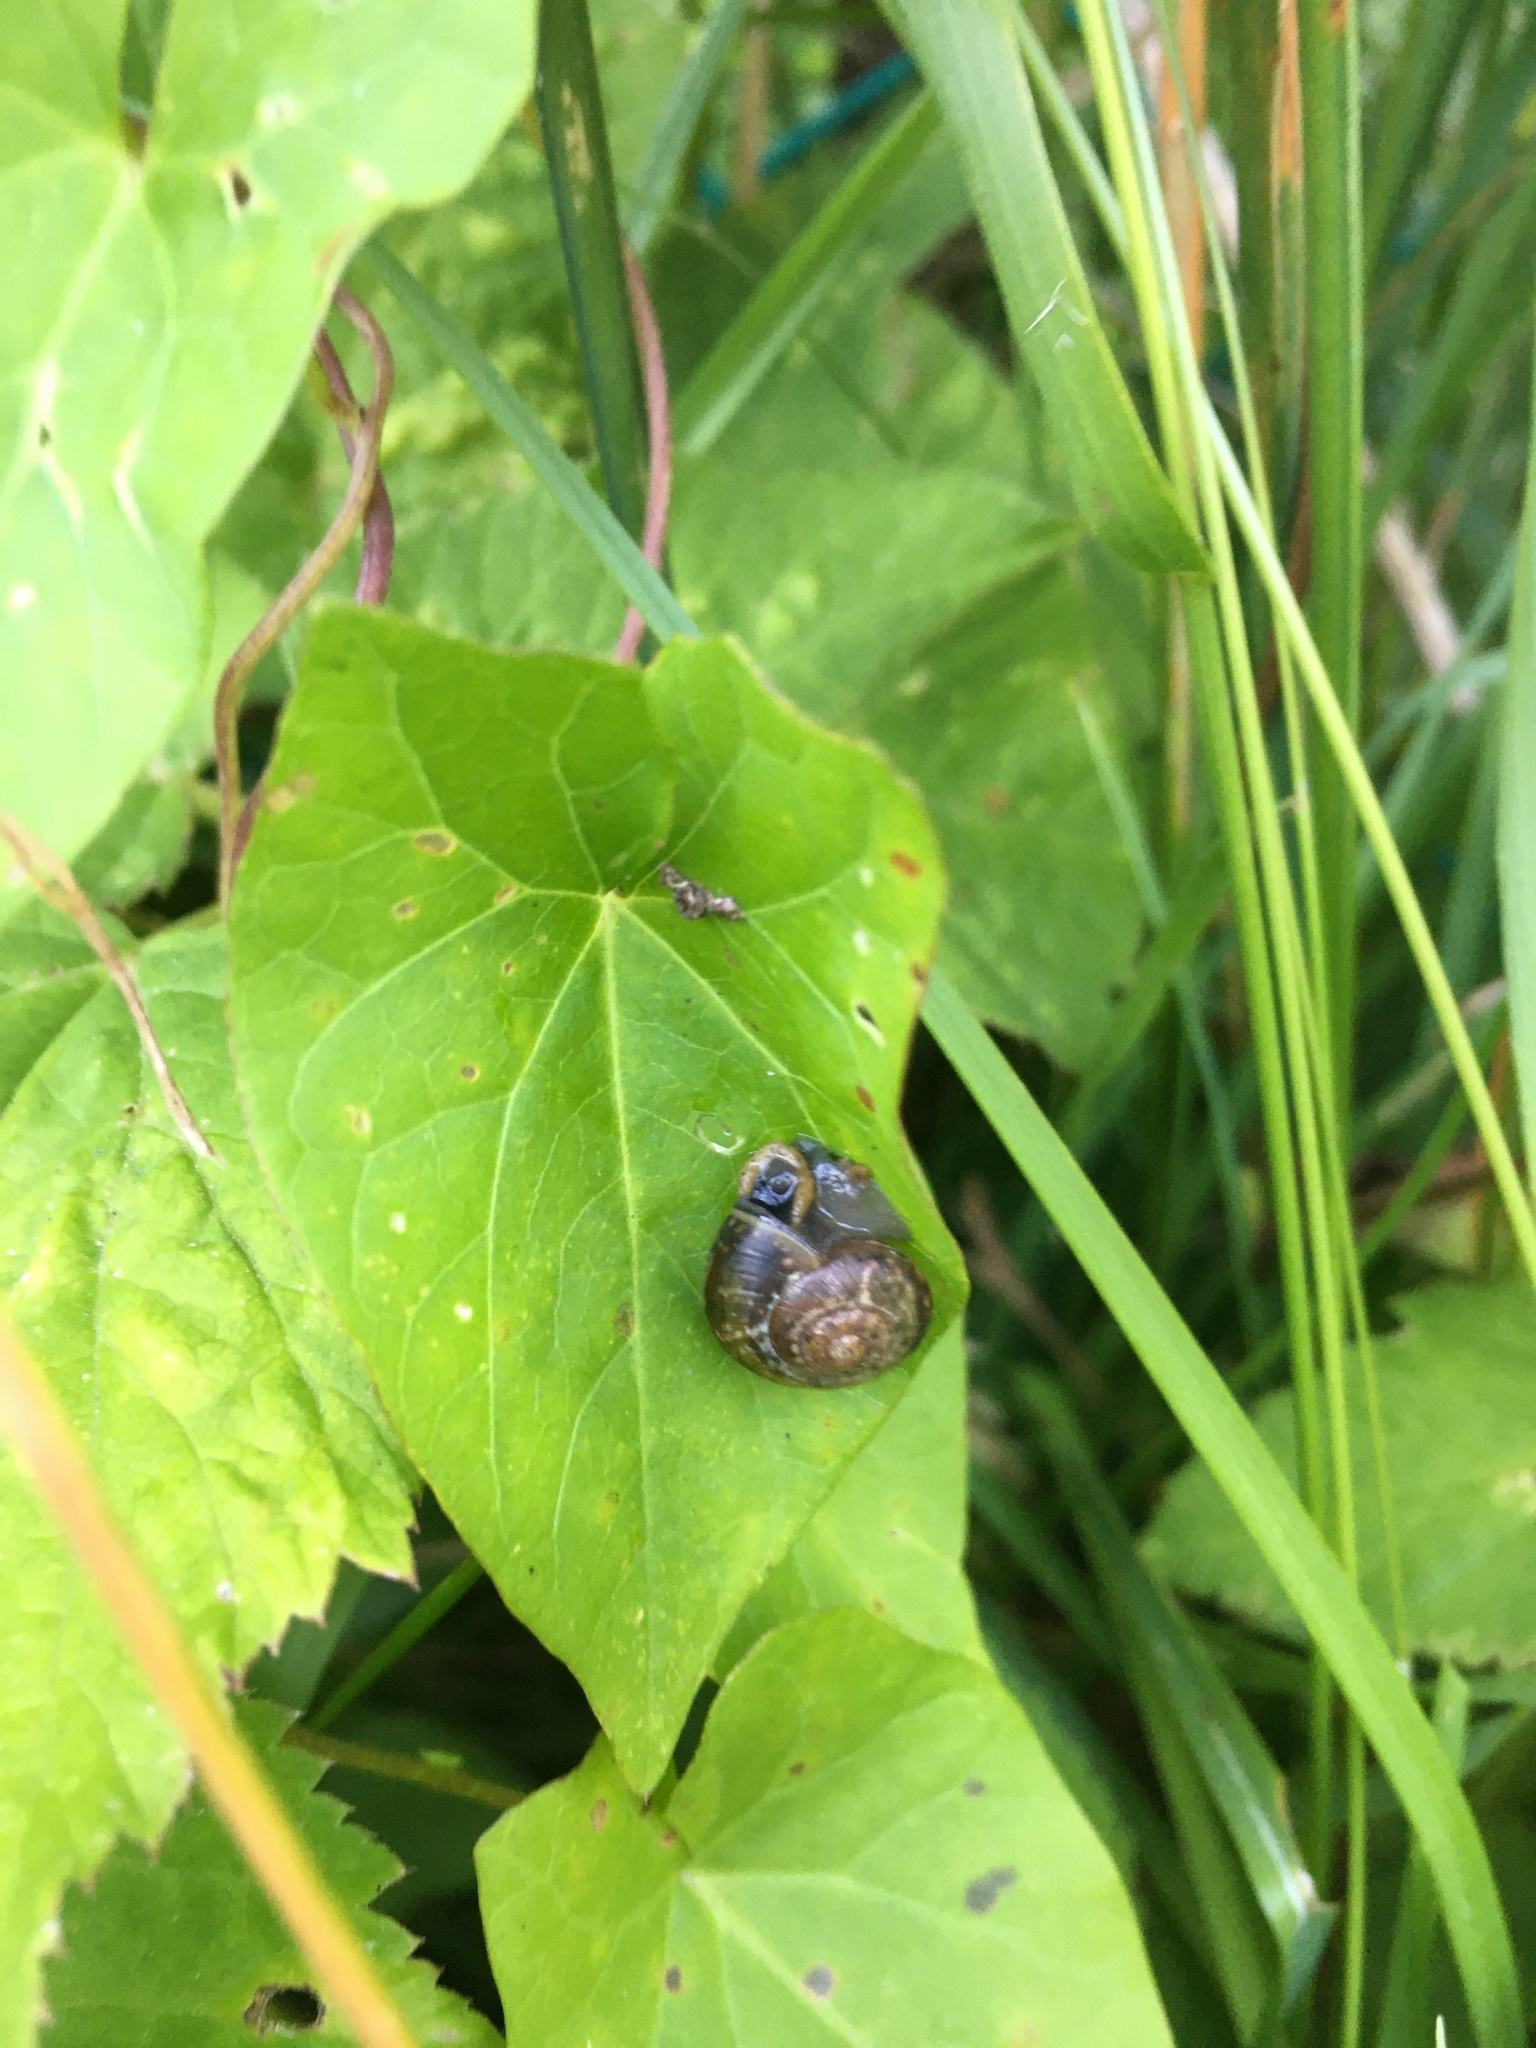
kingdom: Animalia
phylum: Mollusca
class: Gastropoda
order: Stylommatophora
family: Helicidae
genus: Arianta
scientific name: Arianta arbustorum
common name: Copse snail
